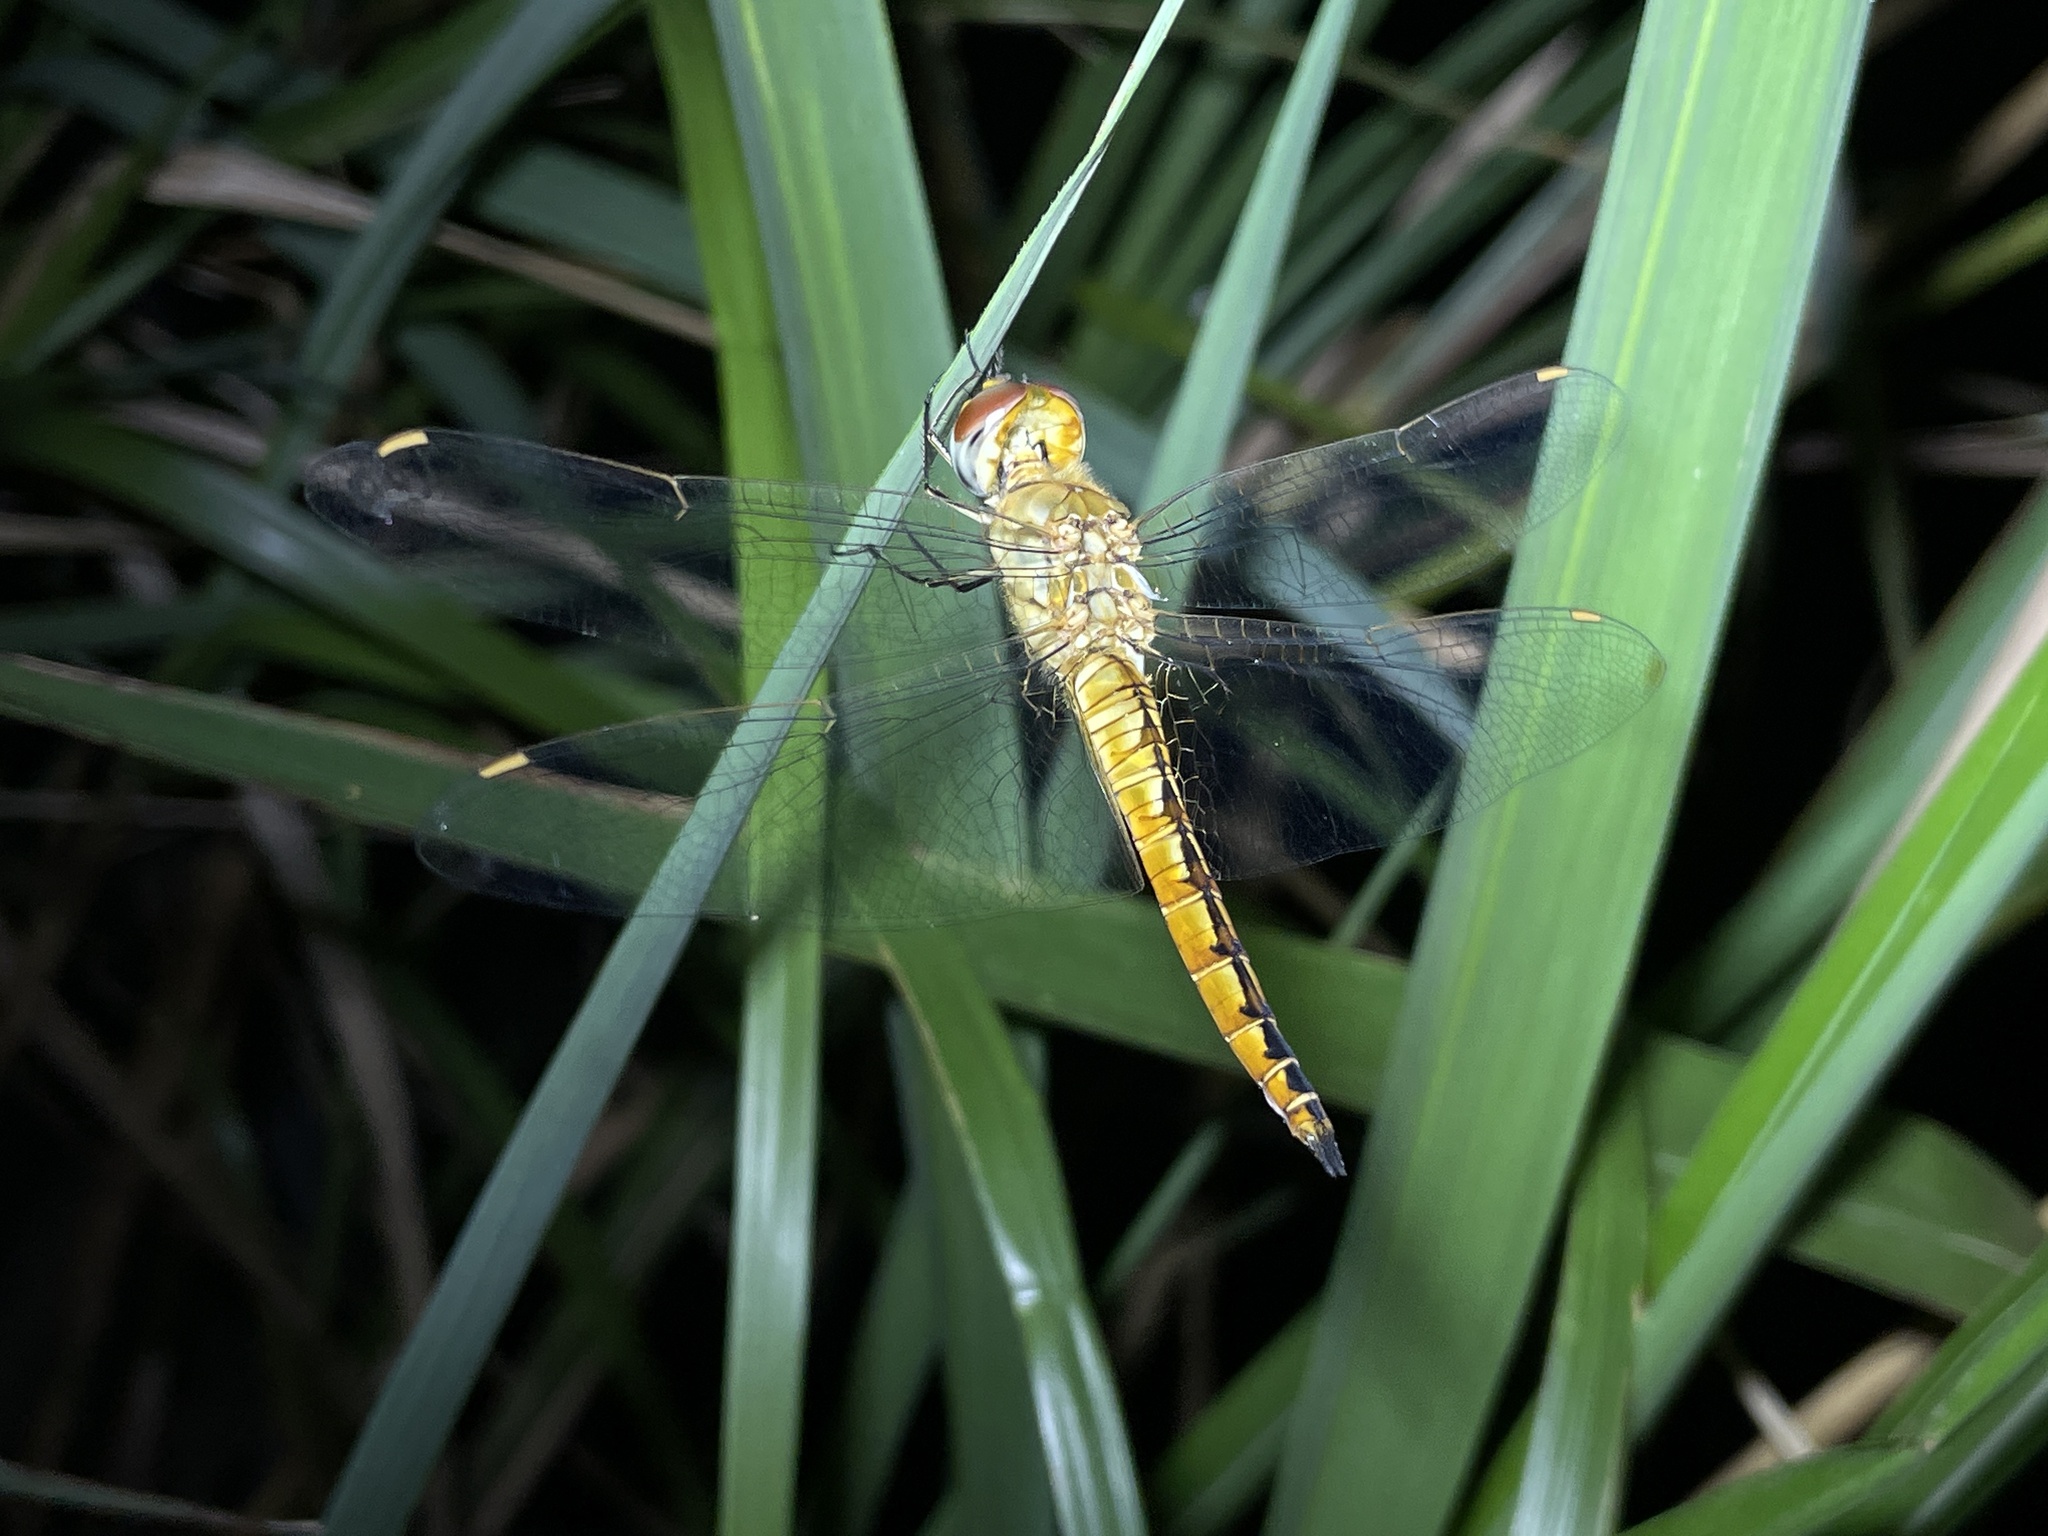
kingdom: Animalia
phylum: Arthropoda
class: Insecta
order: Odonata
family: Libellulidae
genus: Pantala
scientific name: Pantala flavescens
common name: Wandering glider
